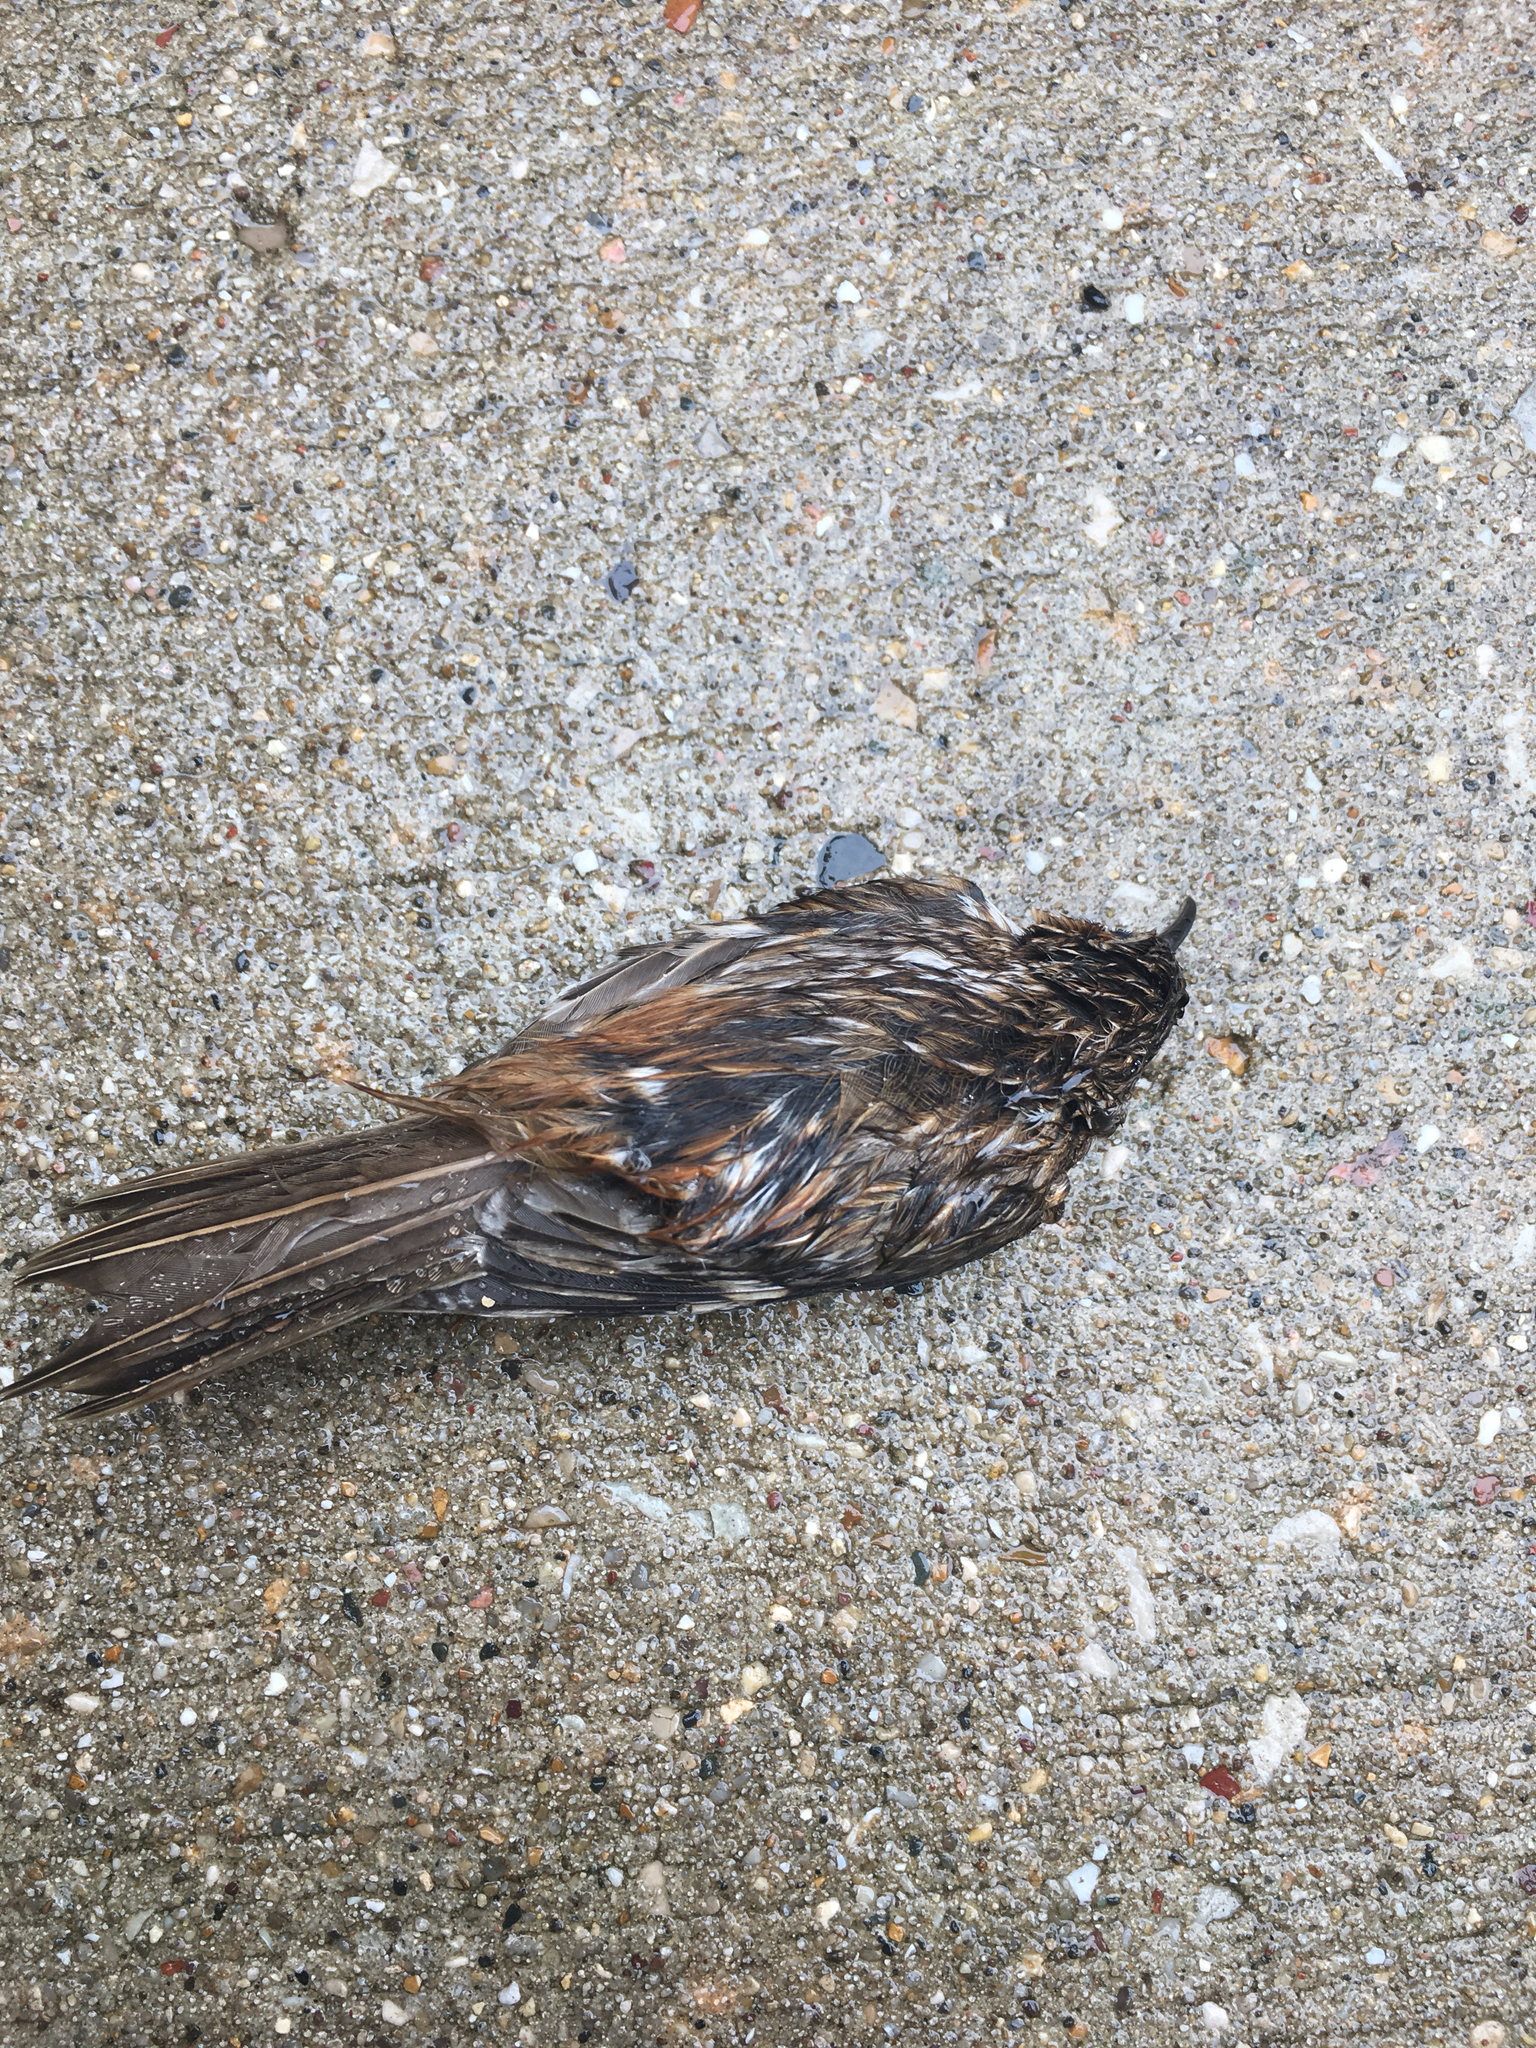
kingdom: Animalia
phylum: Chordata
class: Aves
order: Passeriformes
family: Certhiidae
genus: Certhia
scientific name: Certhia americana
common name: Brown creeper
